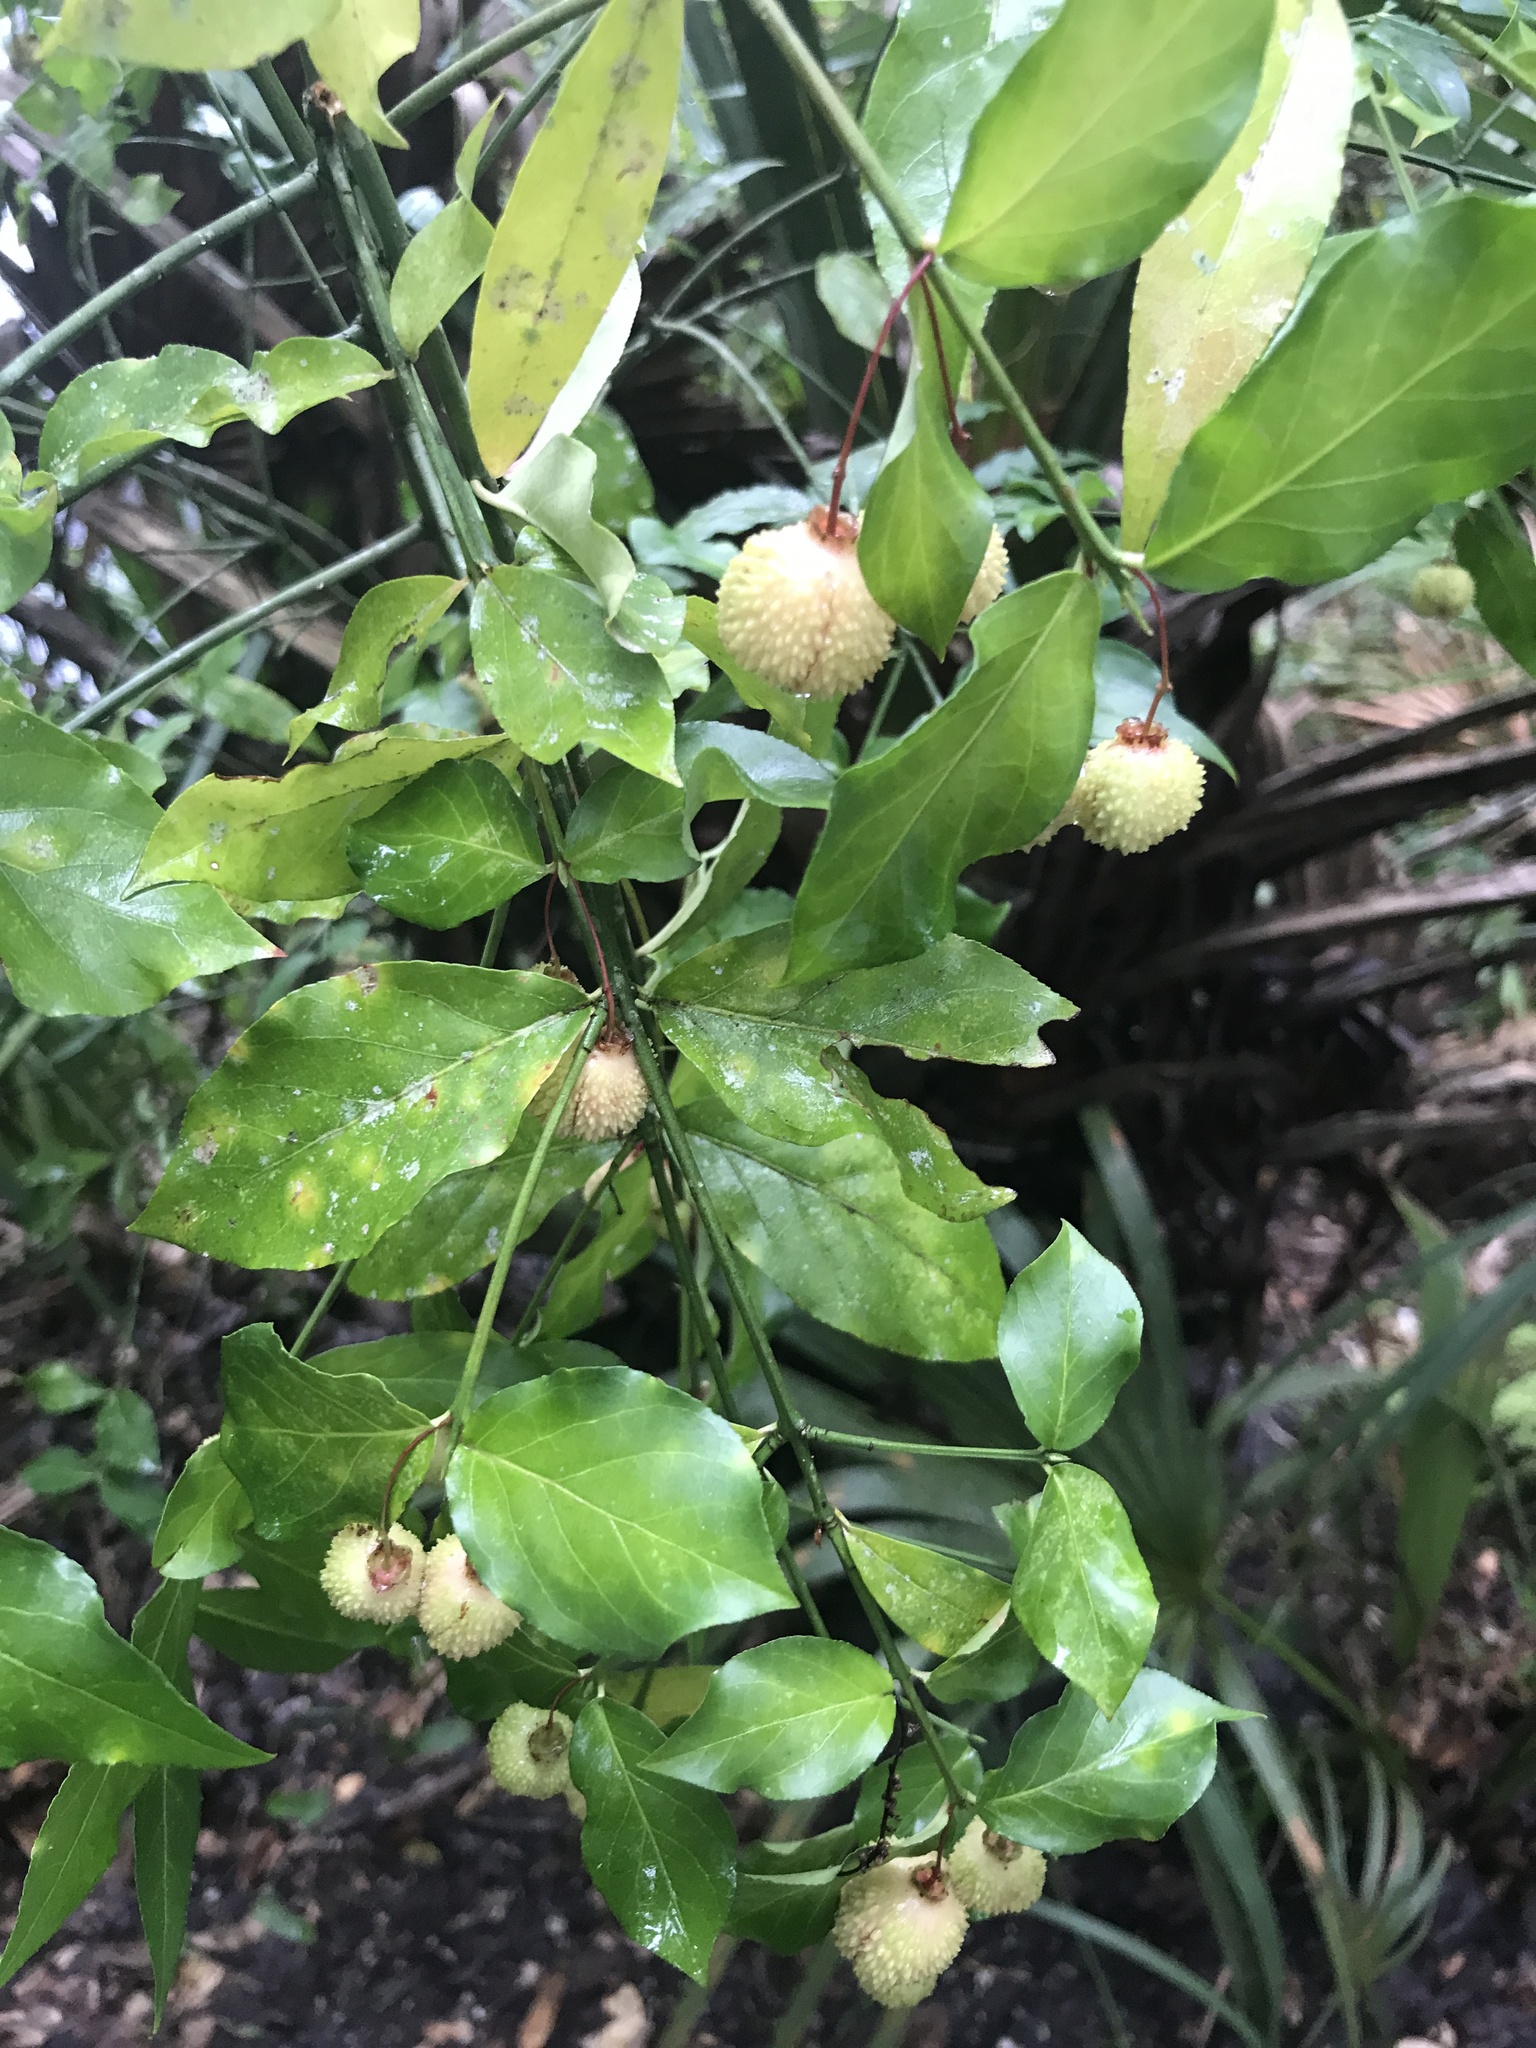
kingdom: Plantae
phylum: Tracheophyta
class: Magnoliopsida
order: Celastrales
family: Celastraceae
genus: Euonymus
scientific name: Euonymus americanus
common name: Bursting-heart
